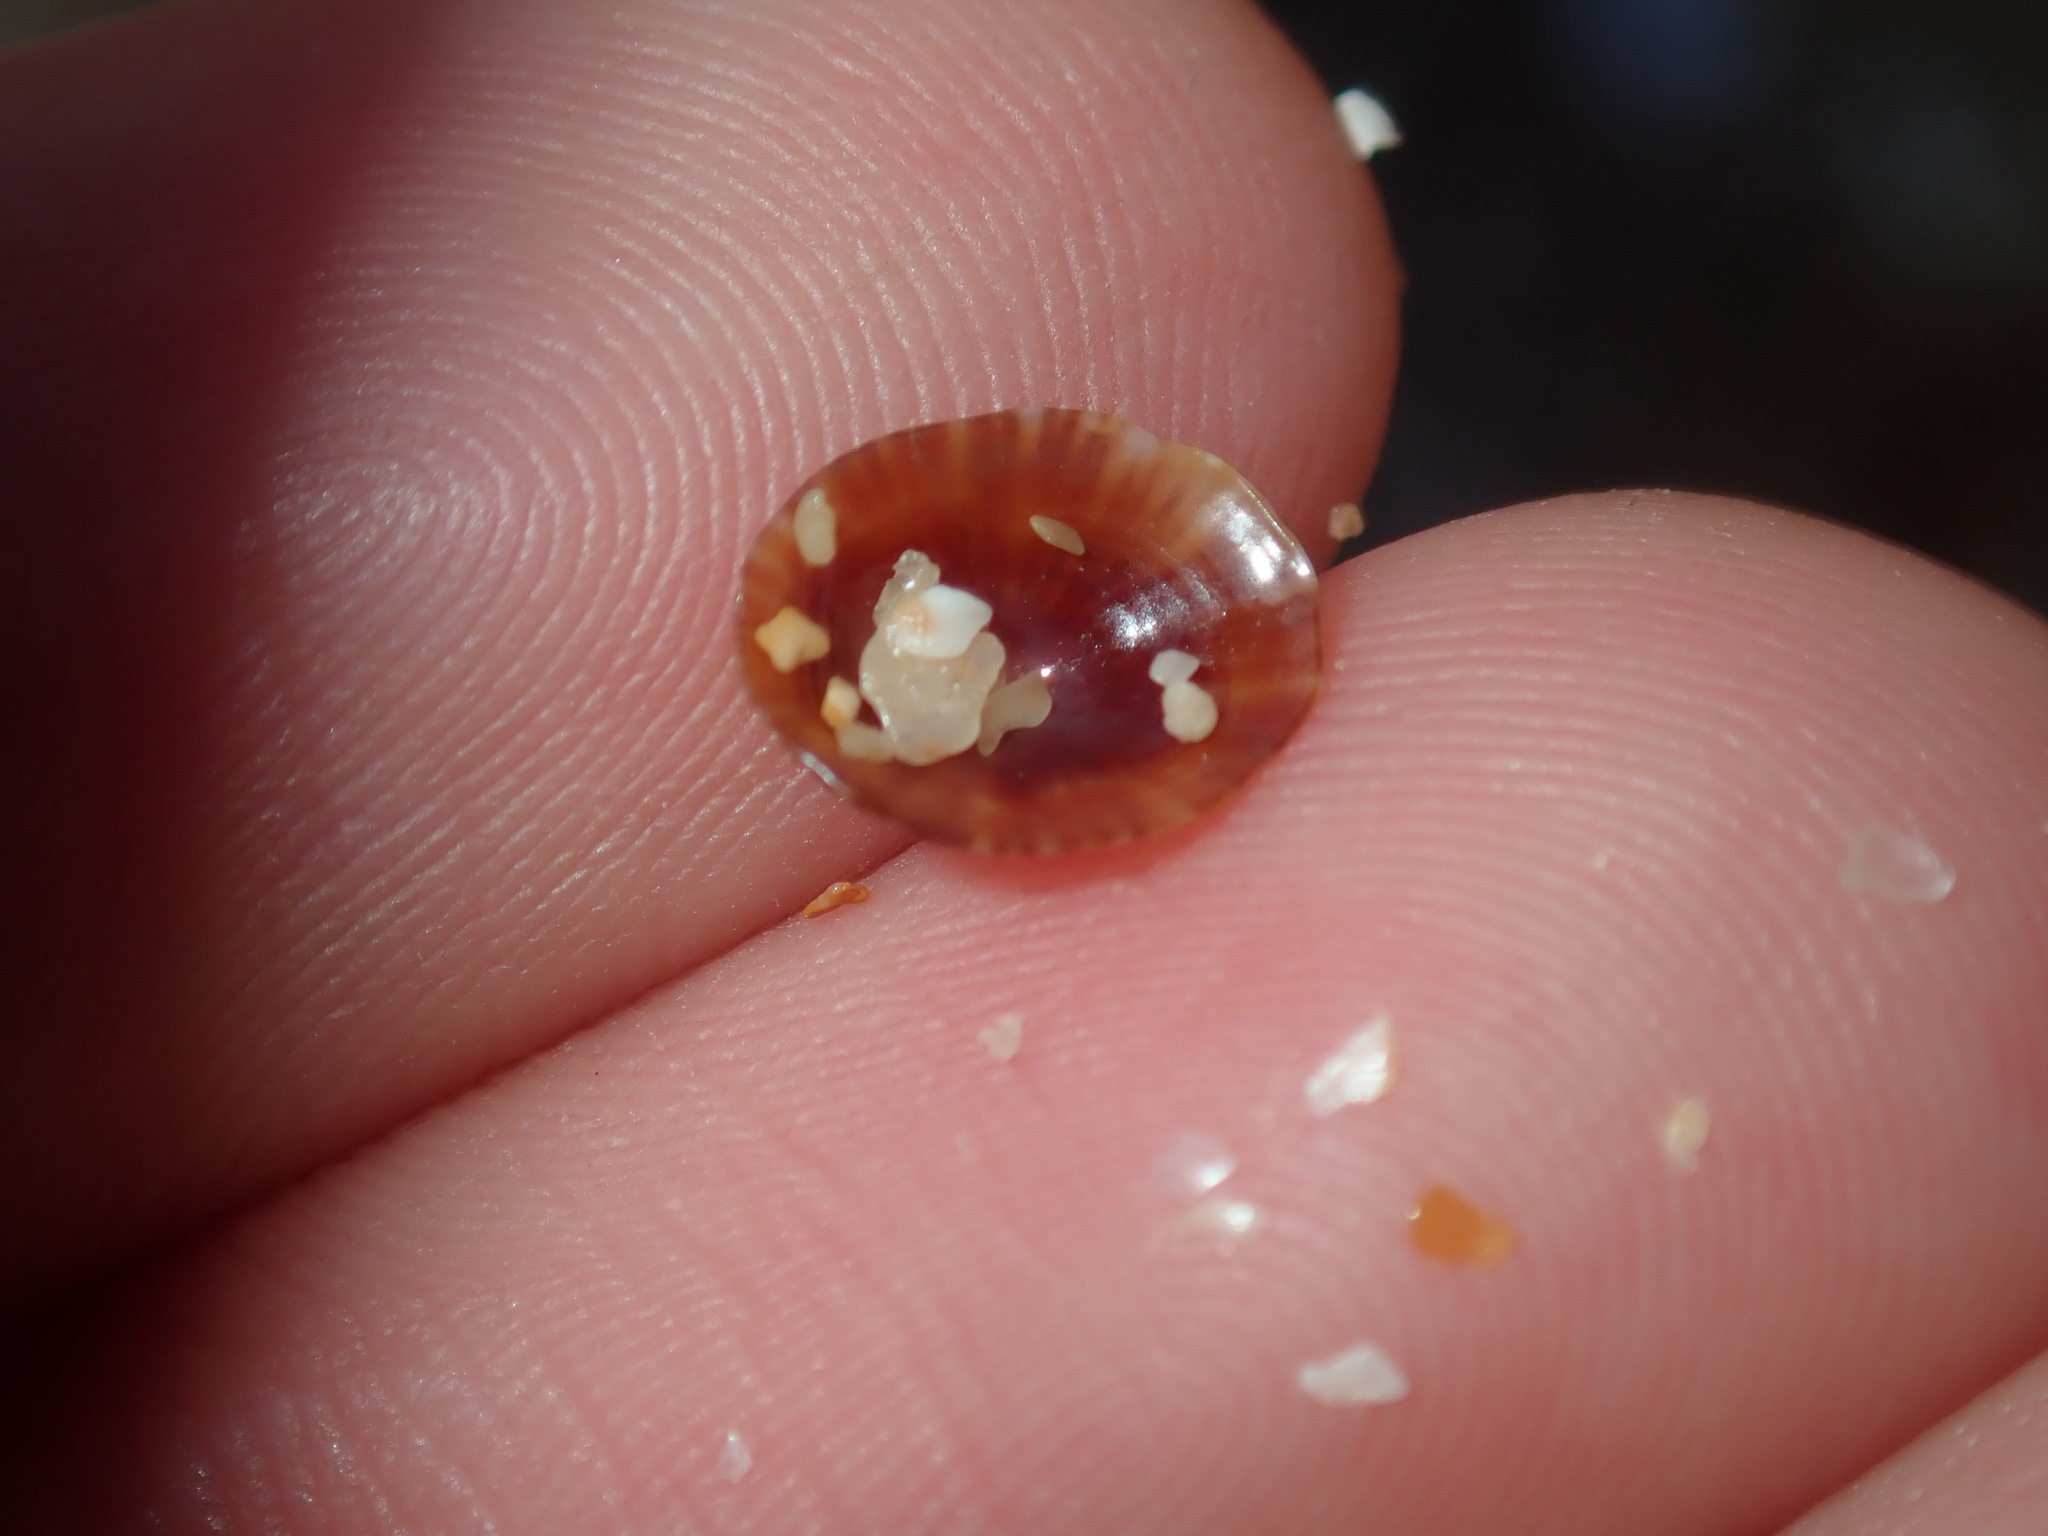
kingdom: Animalia
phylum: Mollusca
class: Gastropoda
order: Siphonariida
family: Siphonariidae
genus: Siphonaria
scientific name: Siphonaria funiculata
